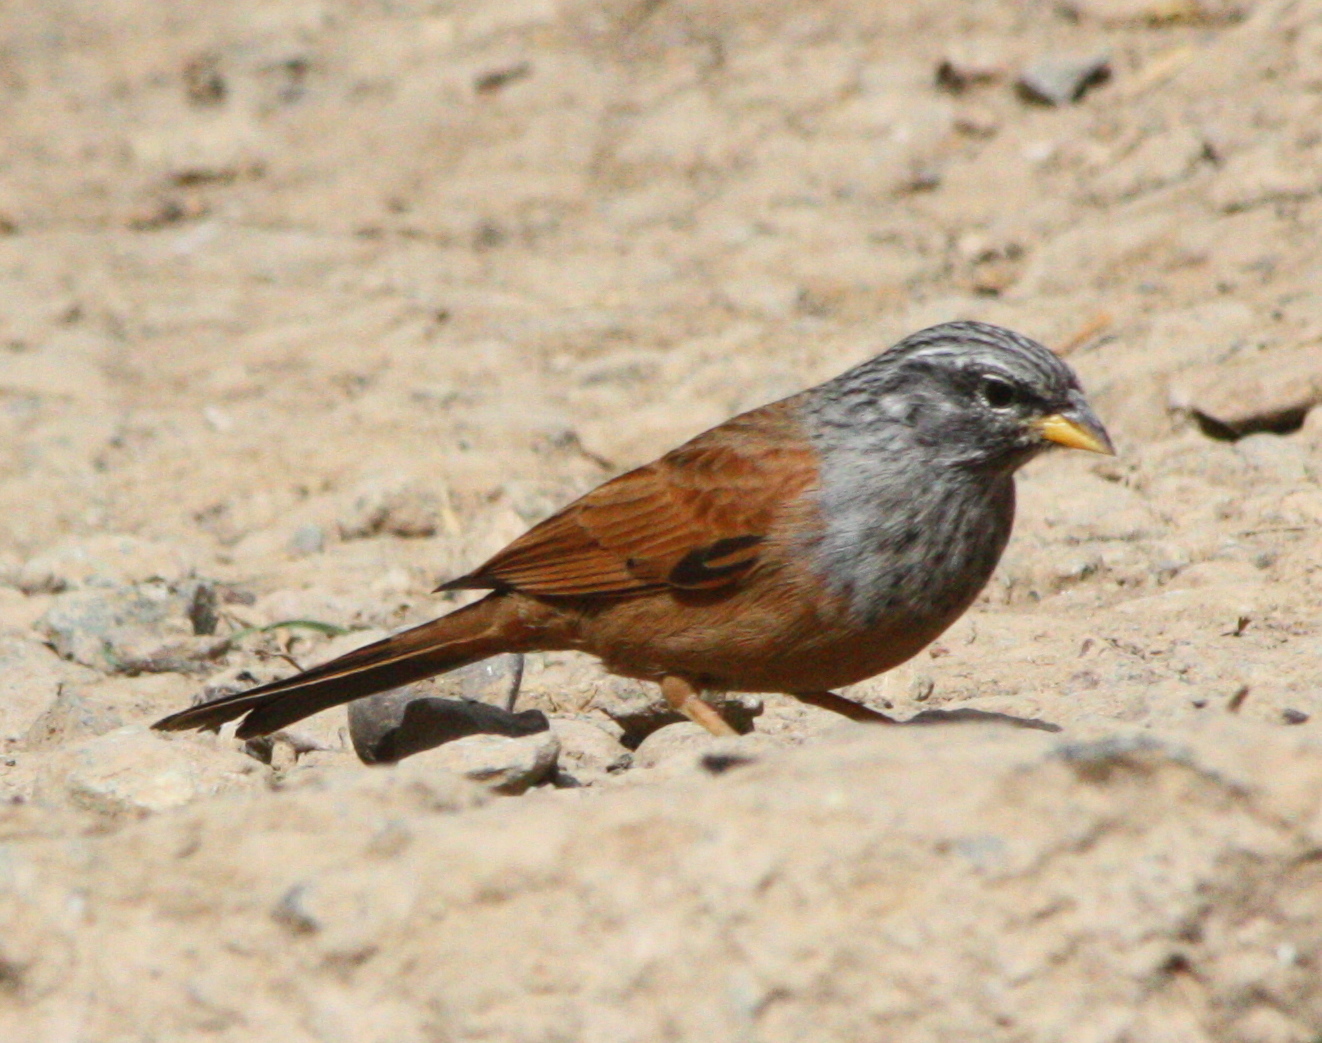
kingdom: Animalia
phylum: Chordata
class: Aves
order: Passeriformes
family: Emberizidae
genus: Emberiza
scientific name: Emberiza sahari
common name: House bunting
